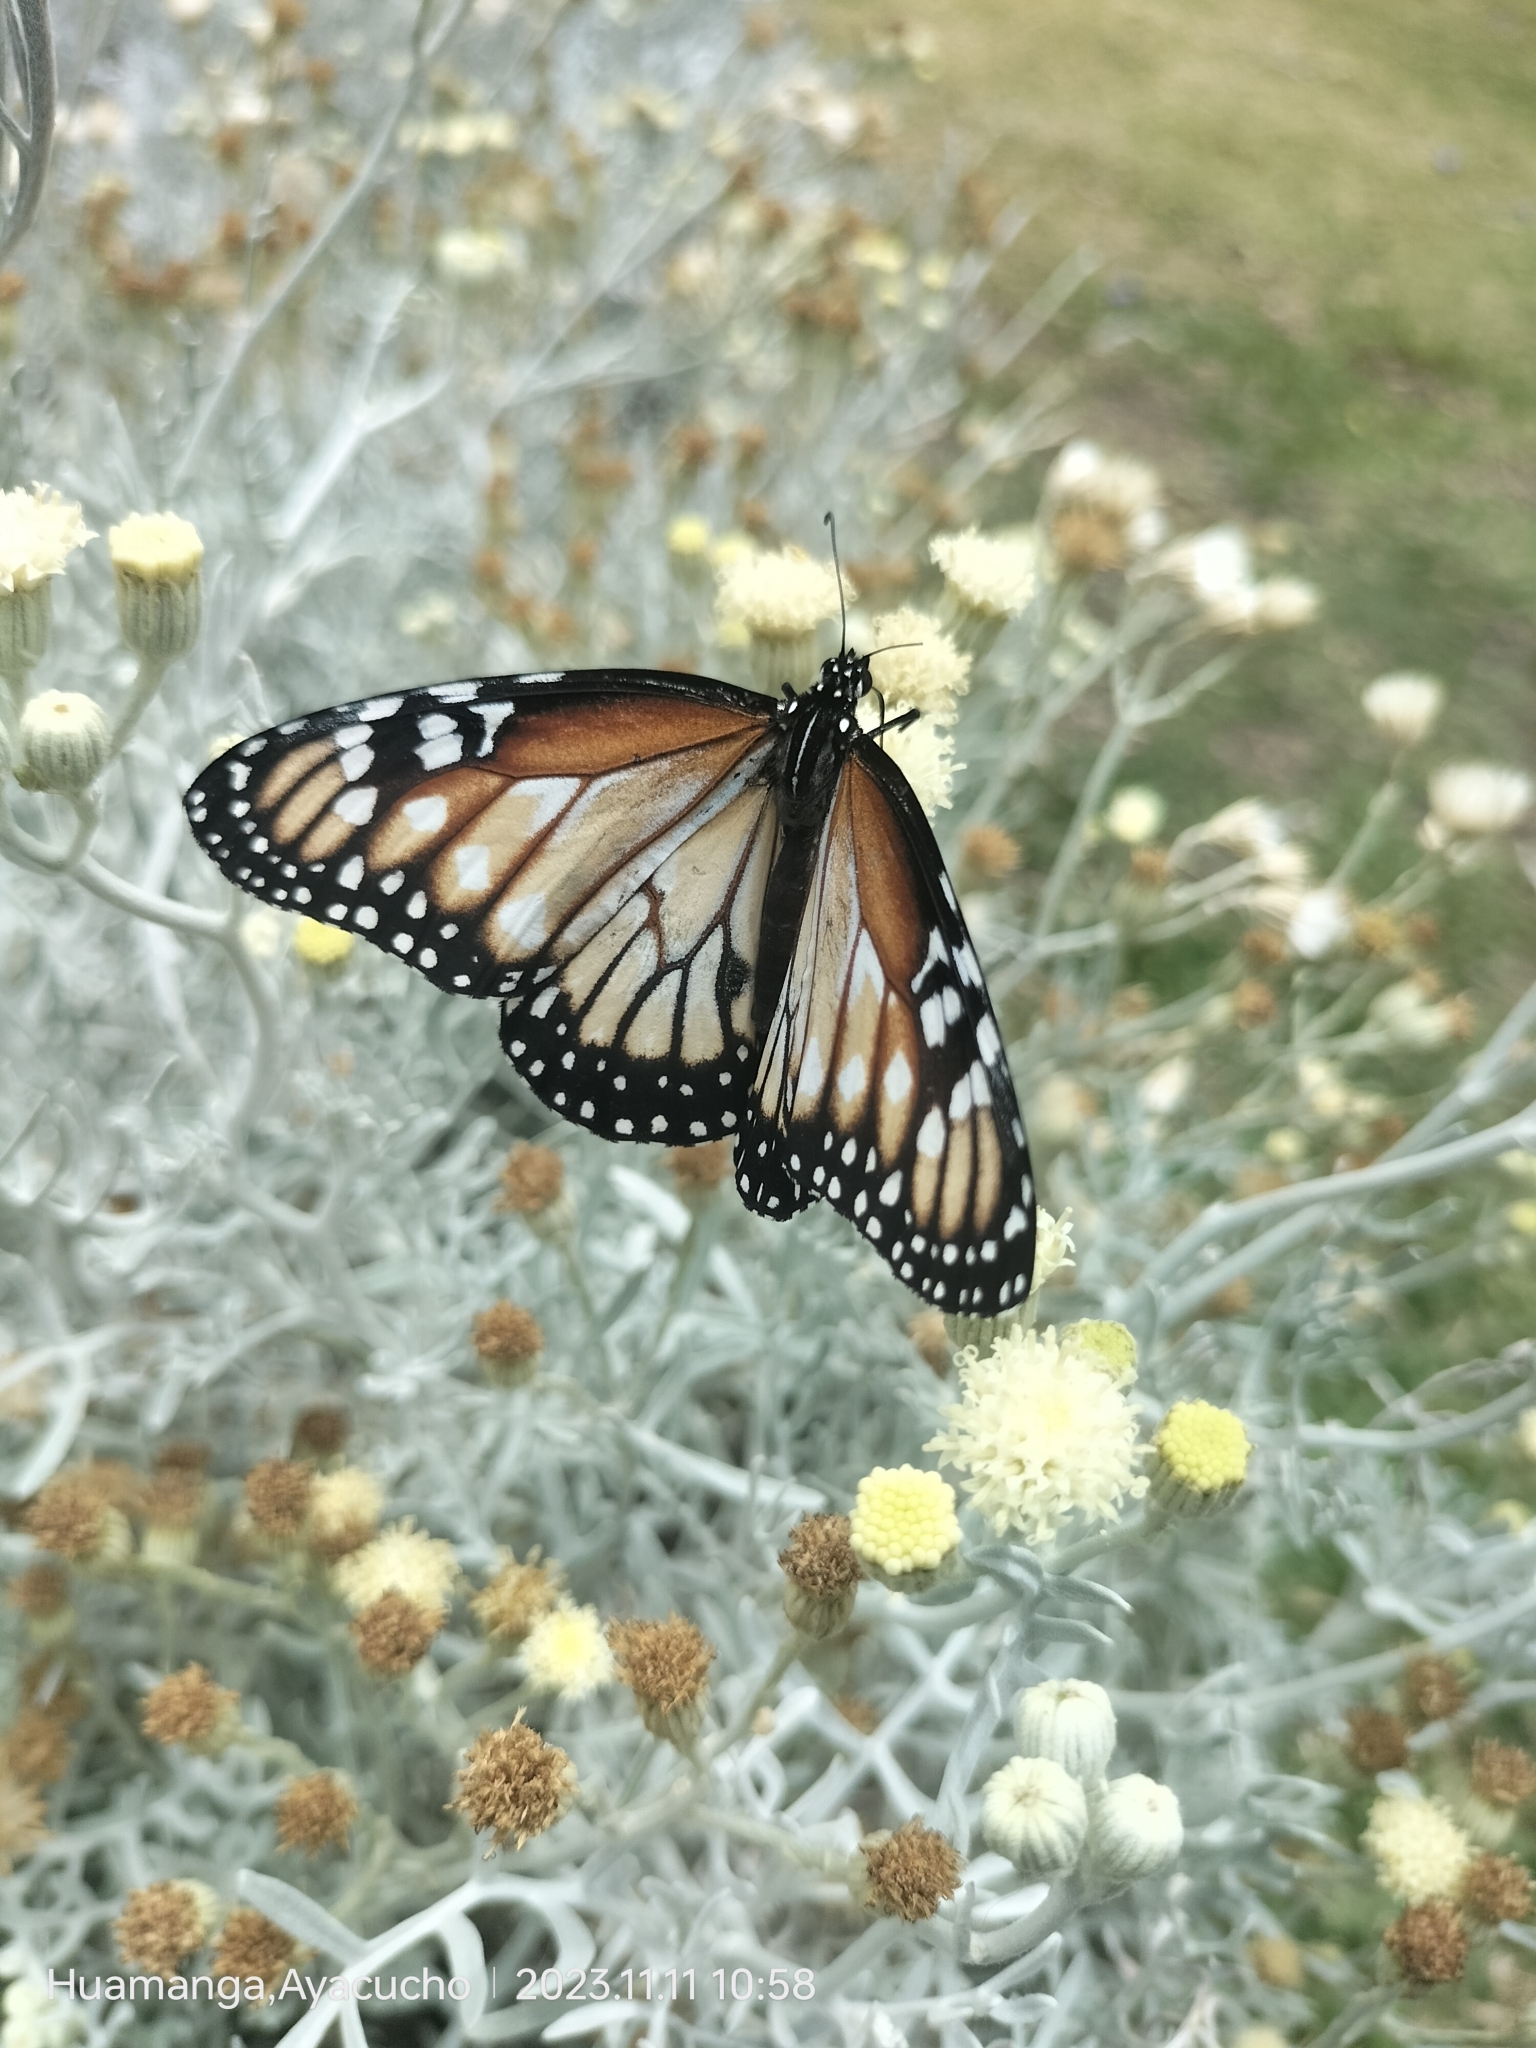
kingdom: Animalia
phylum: Arthropoda
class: Insecta
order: Lepidoptera
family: Nymphalidae
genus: Danaus
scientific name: Danaus gilippus
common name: Queen
